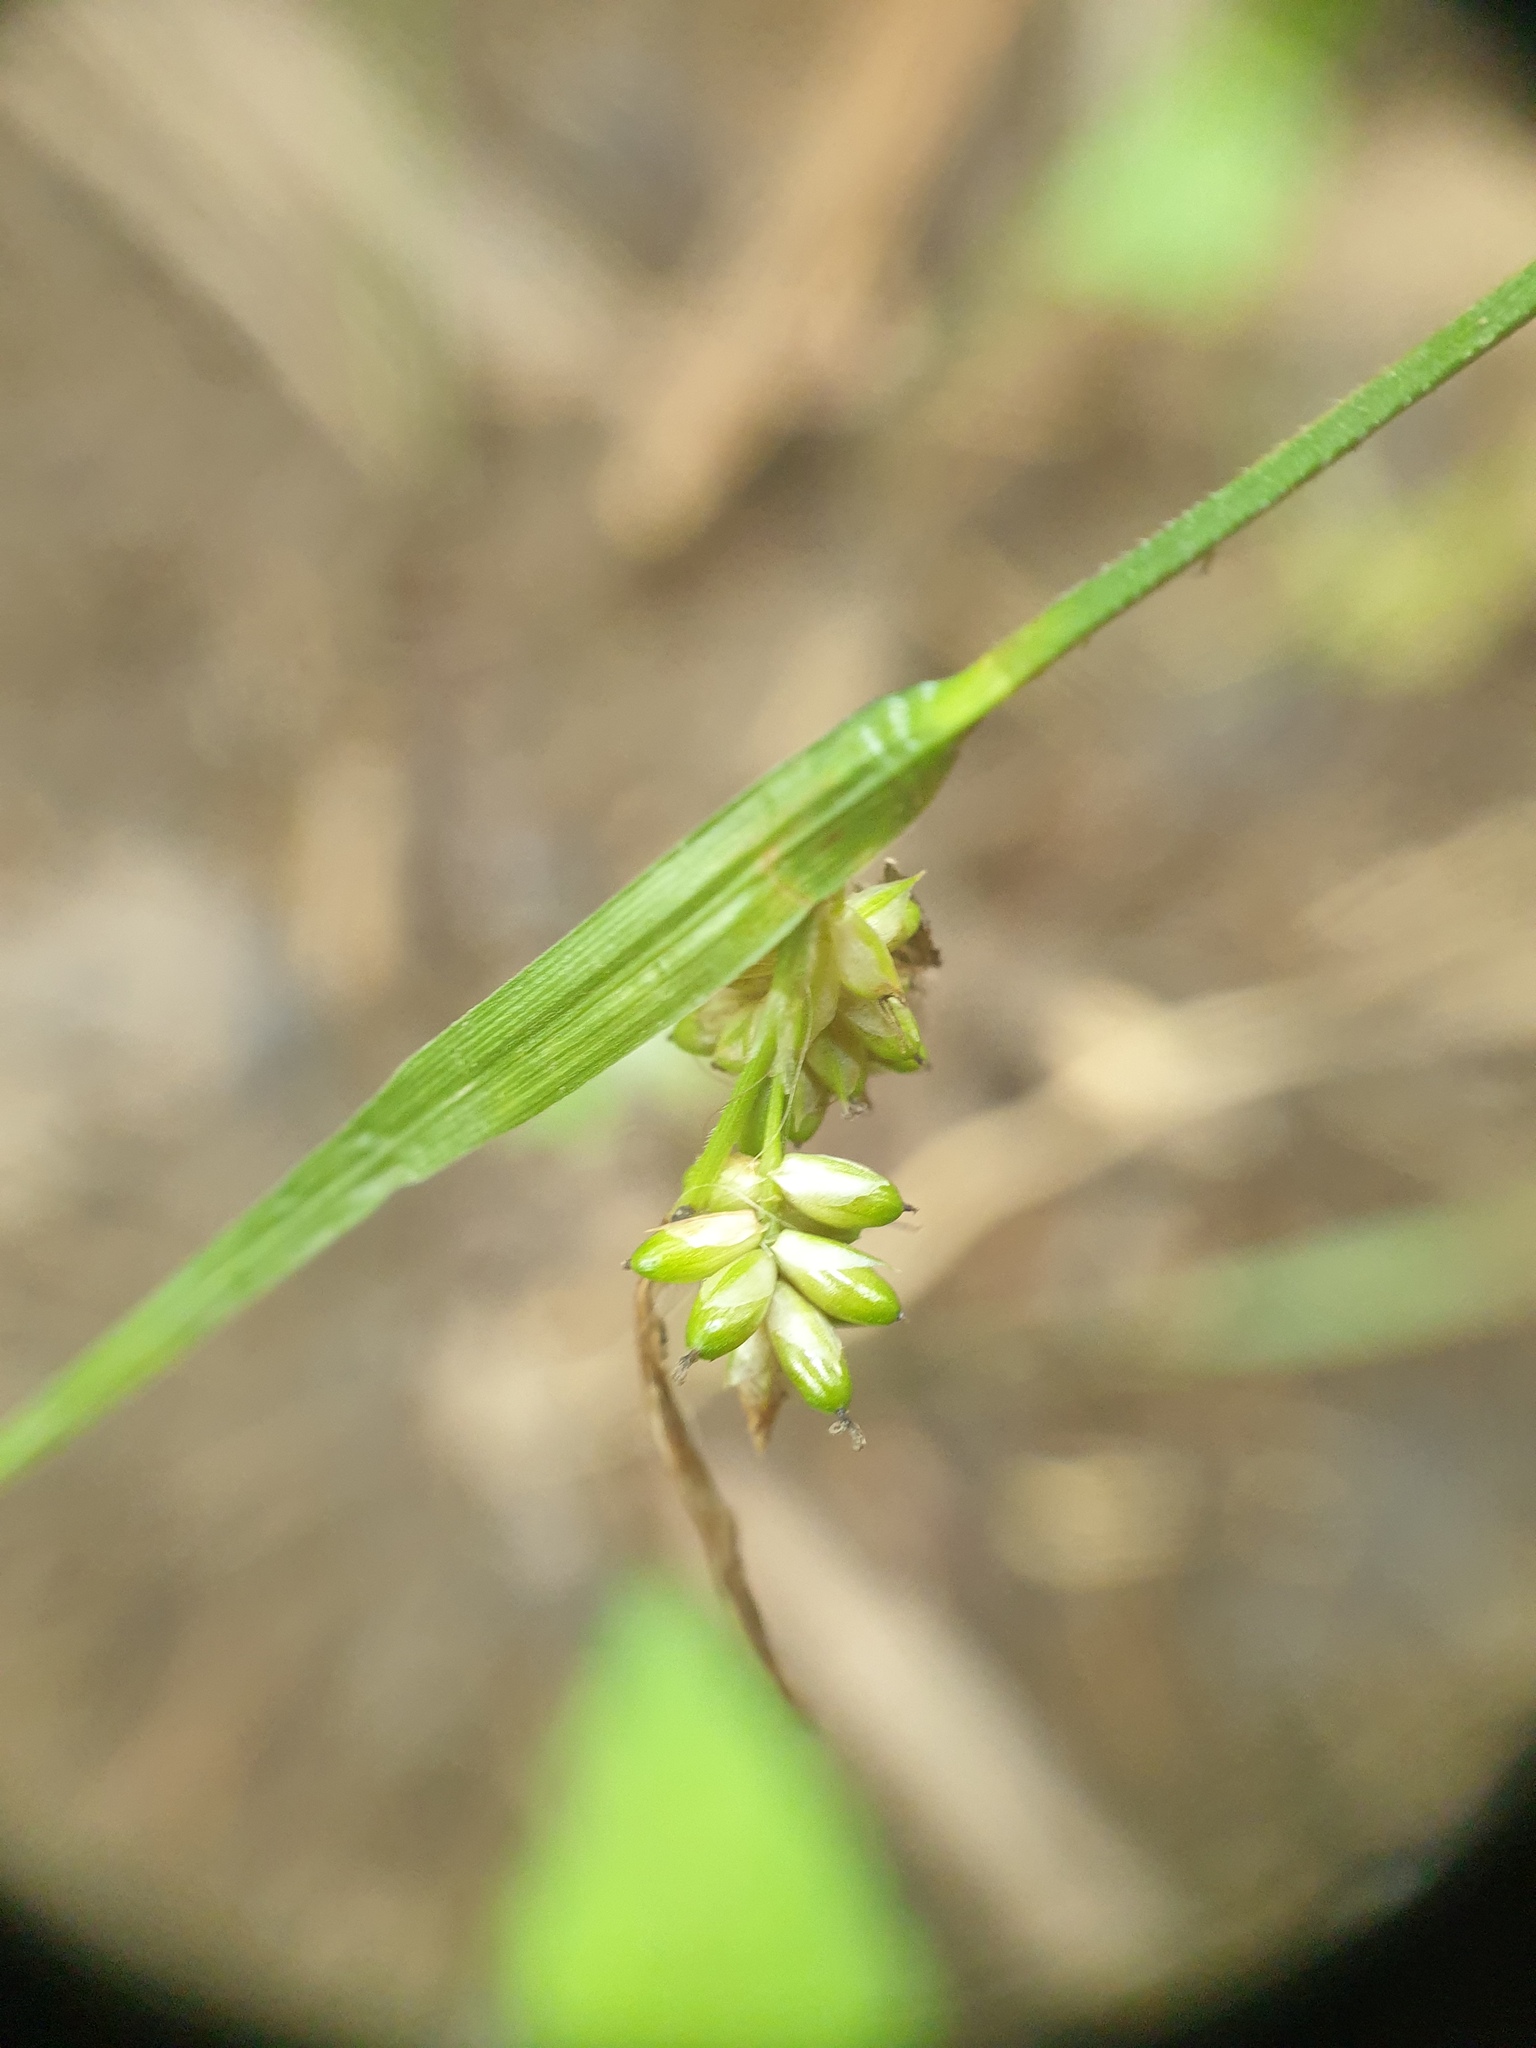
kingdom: Plantae
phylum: Tracheophyta
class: Liliopsida
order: Poales
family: Cyperaceae
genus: Carex
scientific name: Carex pallescens
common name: Pale sedge
